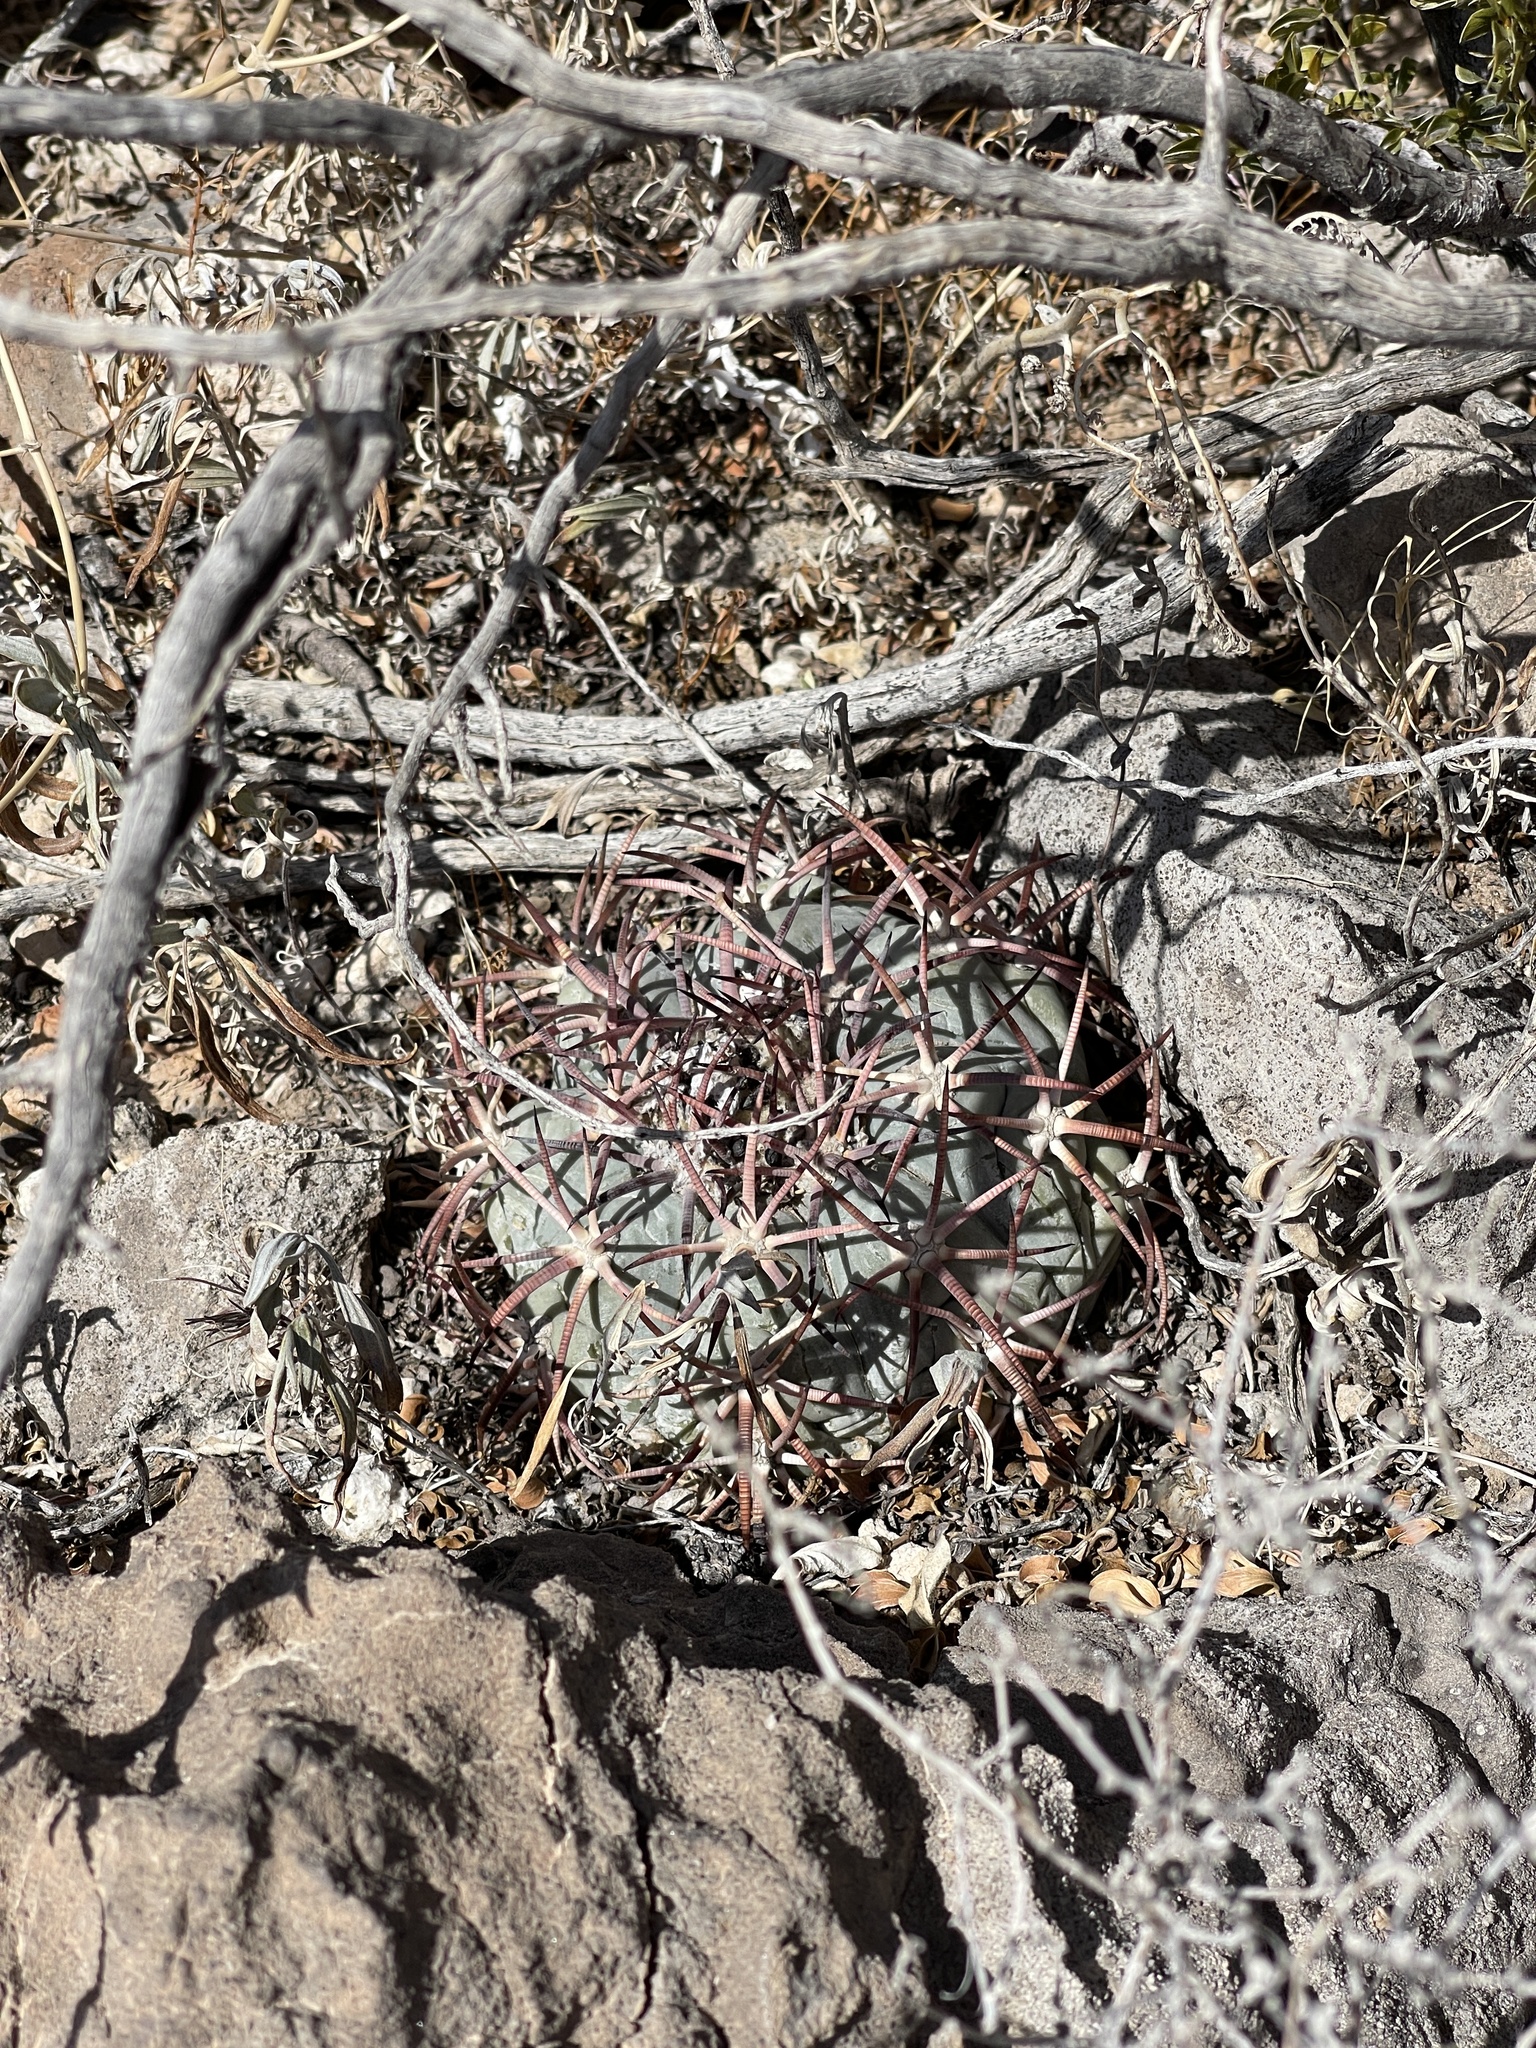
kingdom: Plantae
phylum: Tracheophyta
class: Magnoliopsida
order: Caryophyllales
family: Cactaceae
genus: Echinocactus
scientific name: Echinocactus horizonthalonius
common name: Devilshead
